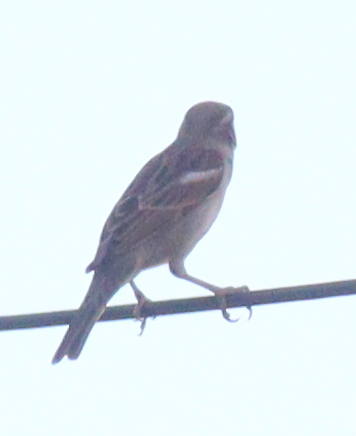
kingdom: Animalia
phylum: Chordata
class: Aves
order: Passeriformes
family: Passeridae
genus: Passer
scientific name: Passer domesticus
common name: House sparrow
